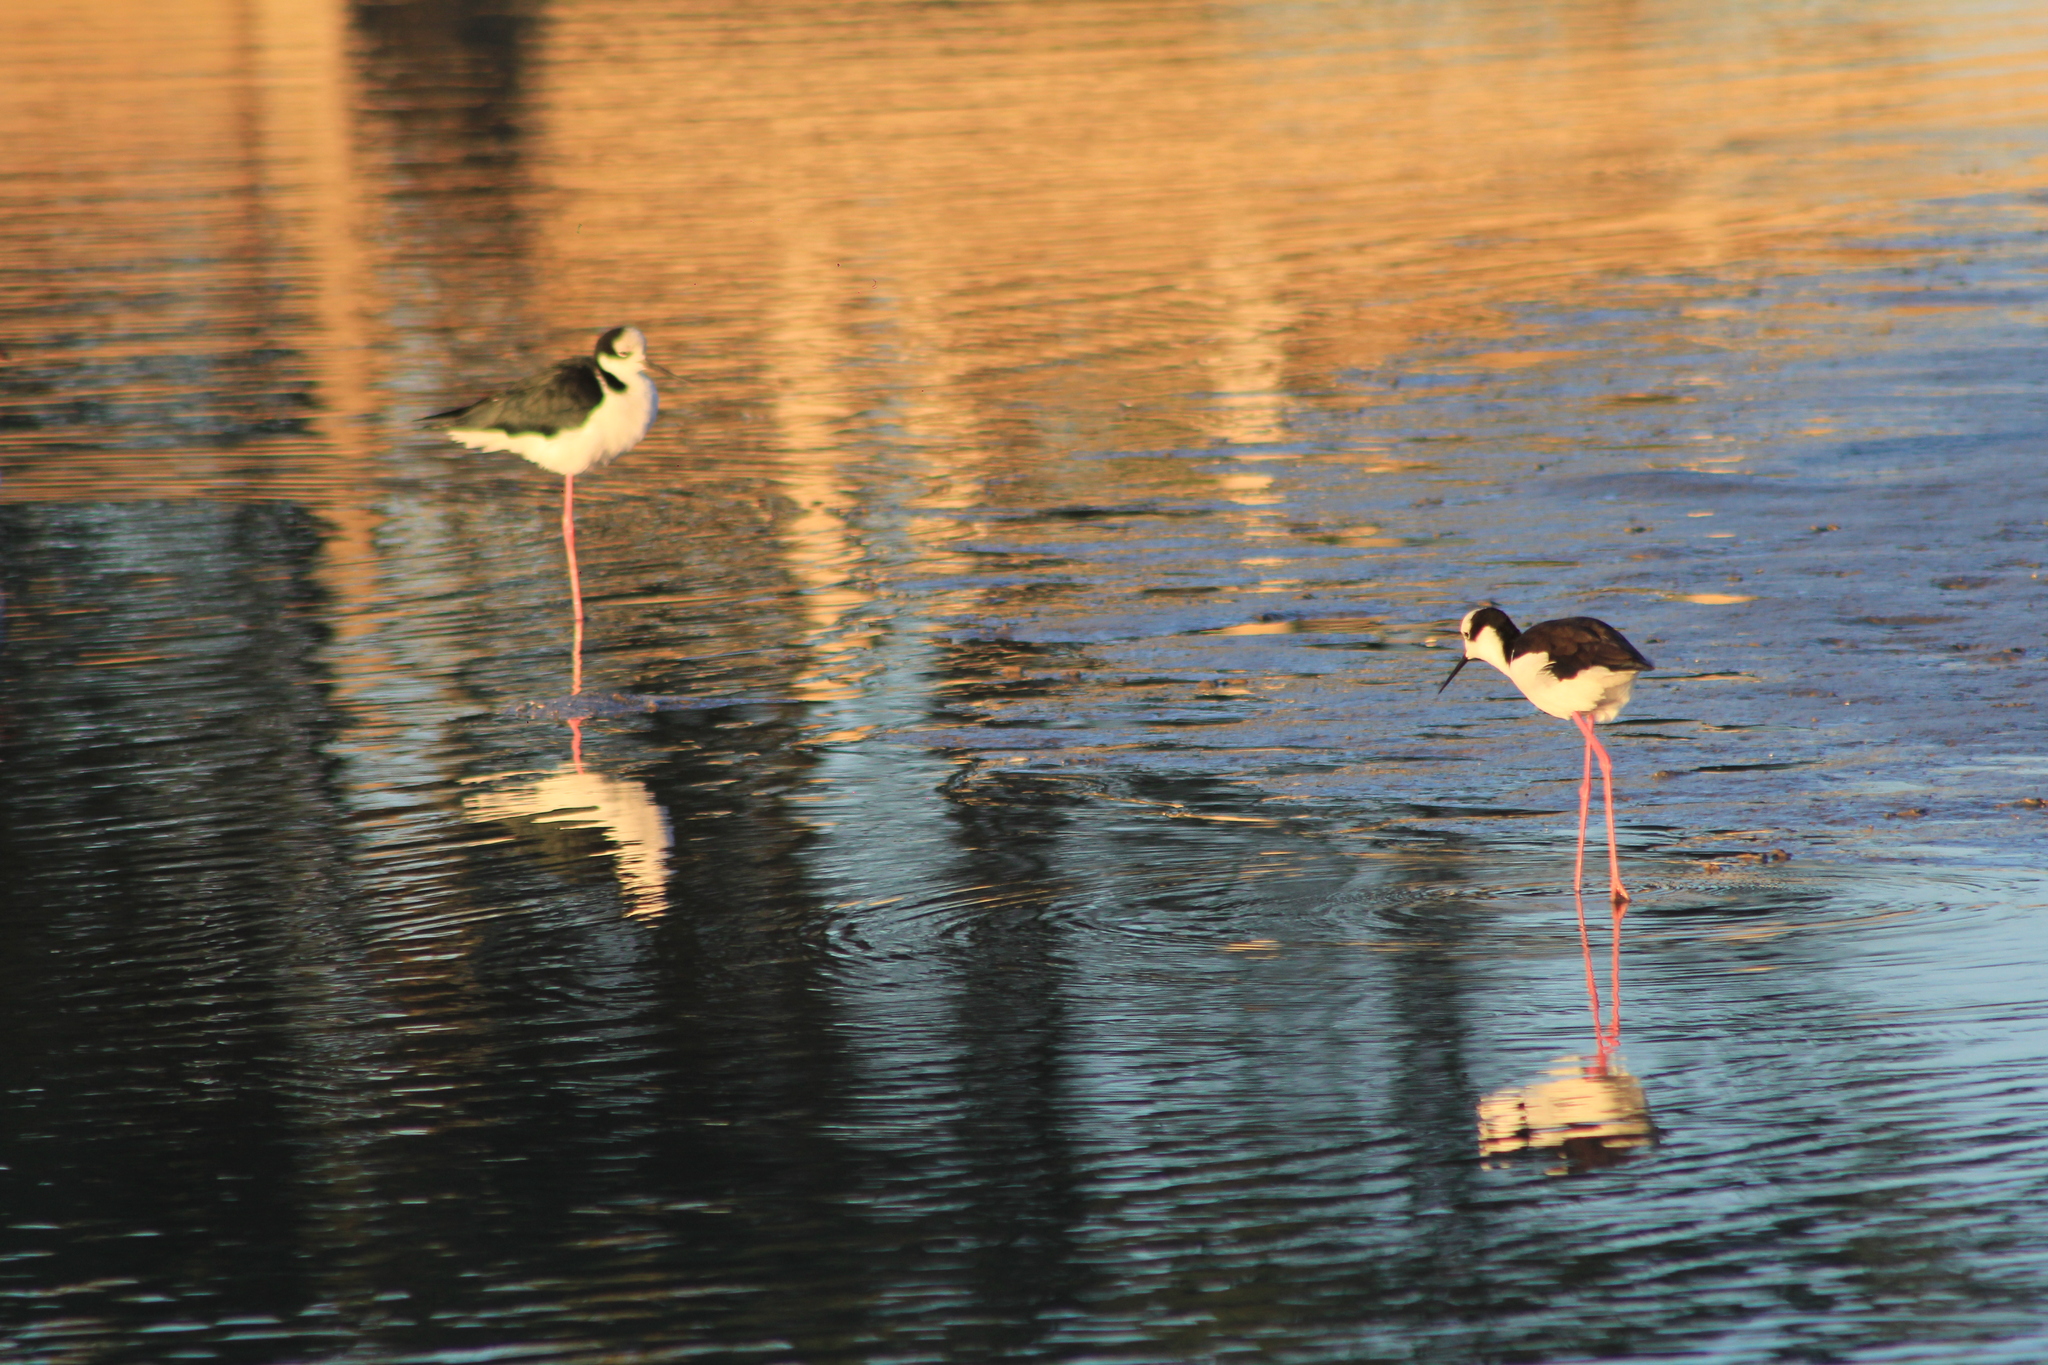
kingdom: Animalia
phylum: Chordata
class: Aves
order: Charadriiformes
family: Recurvirostridae
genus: Himantopus
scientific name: Himantopus mexicanus
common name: Black-necked stilt
